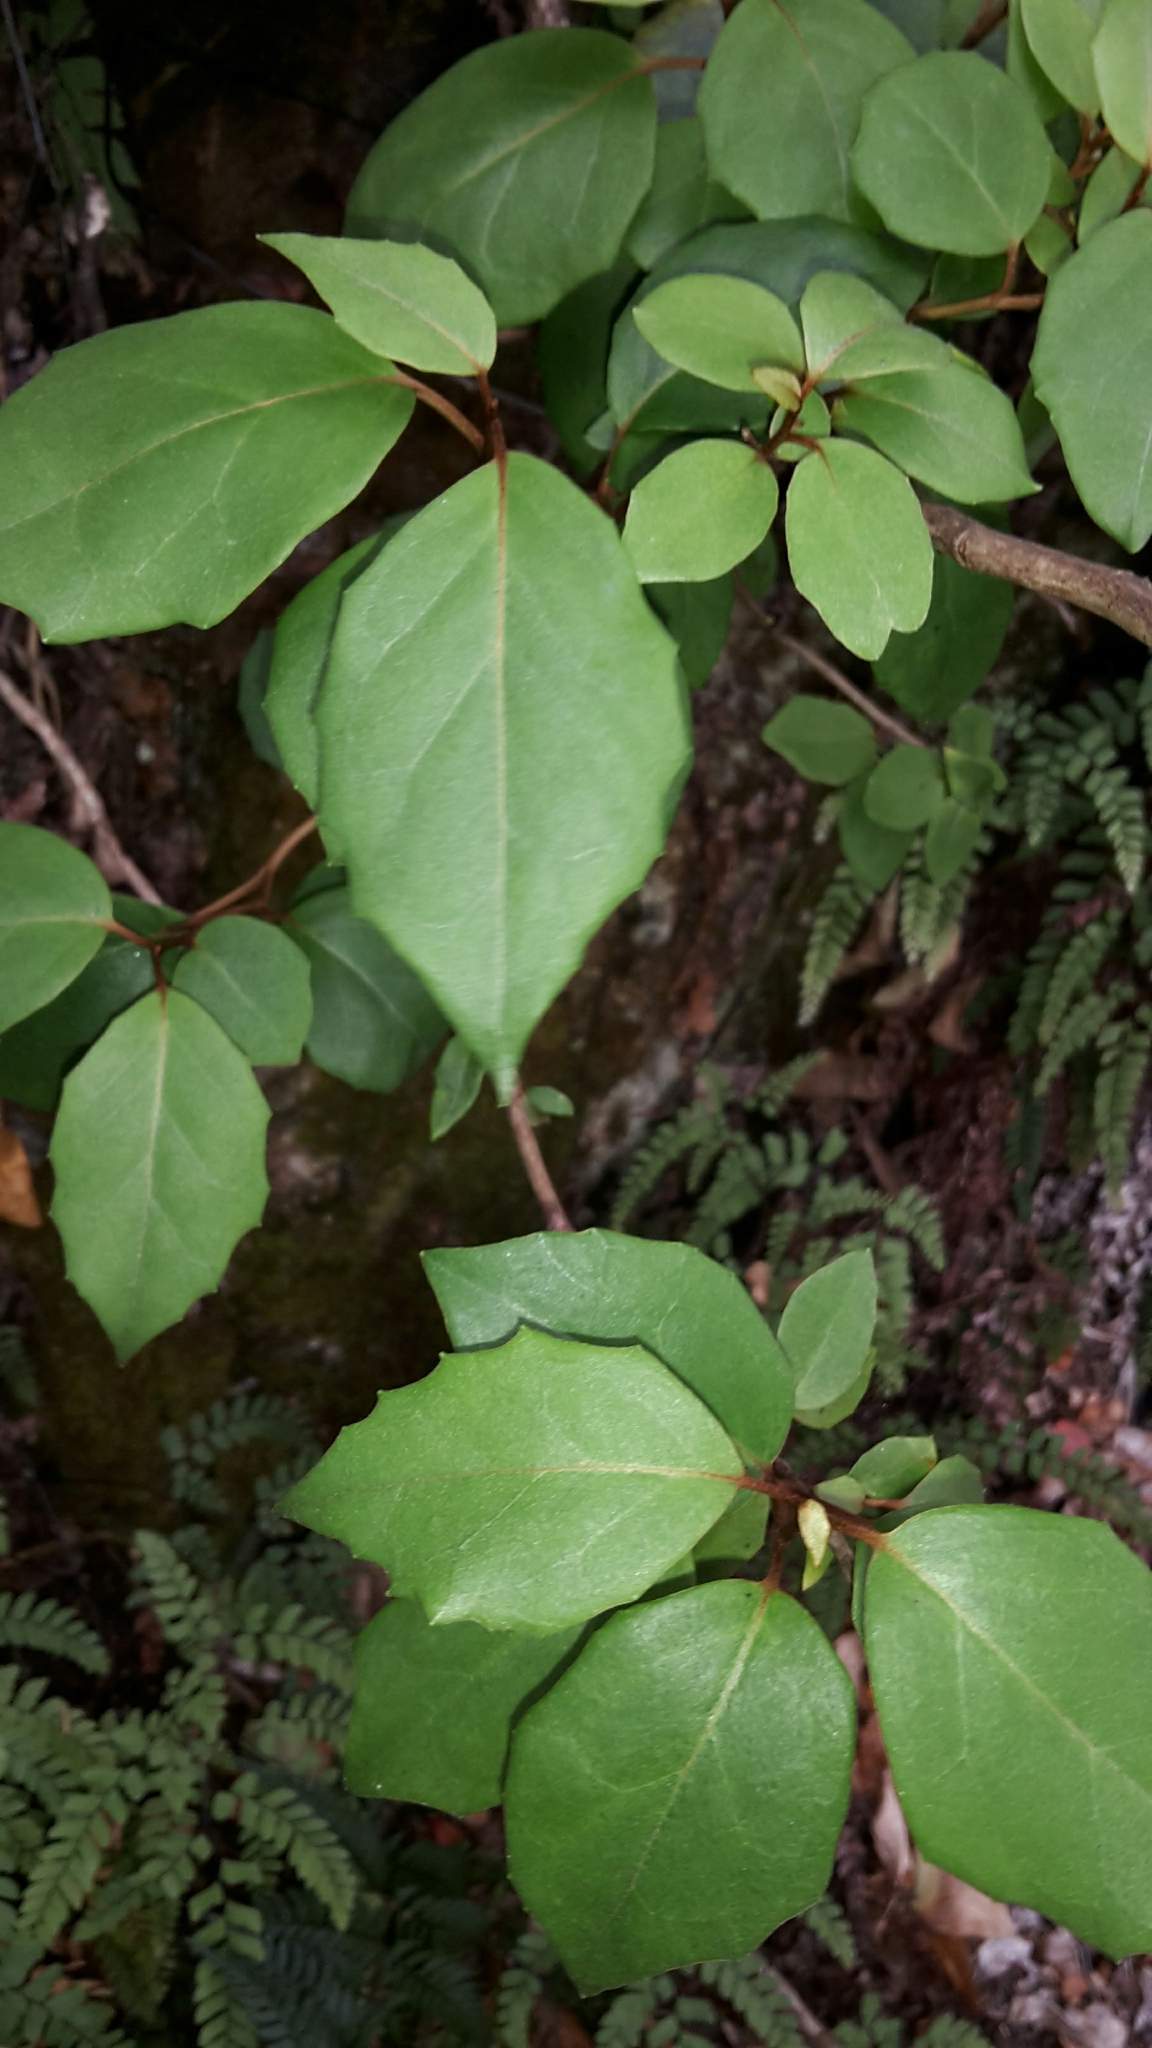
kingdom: Plantae
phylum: Tracheophyta
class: Magnoliopsida
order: Asterales
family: Asteraceae
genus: Olearia
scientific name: Olearia arborescens
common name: Glossy tree daisy
